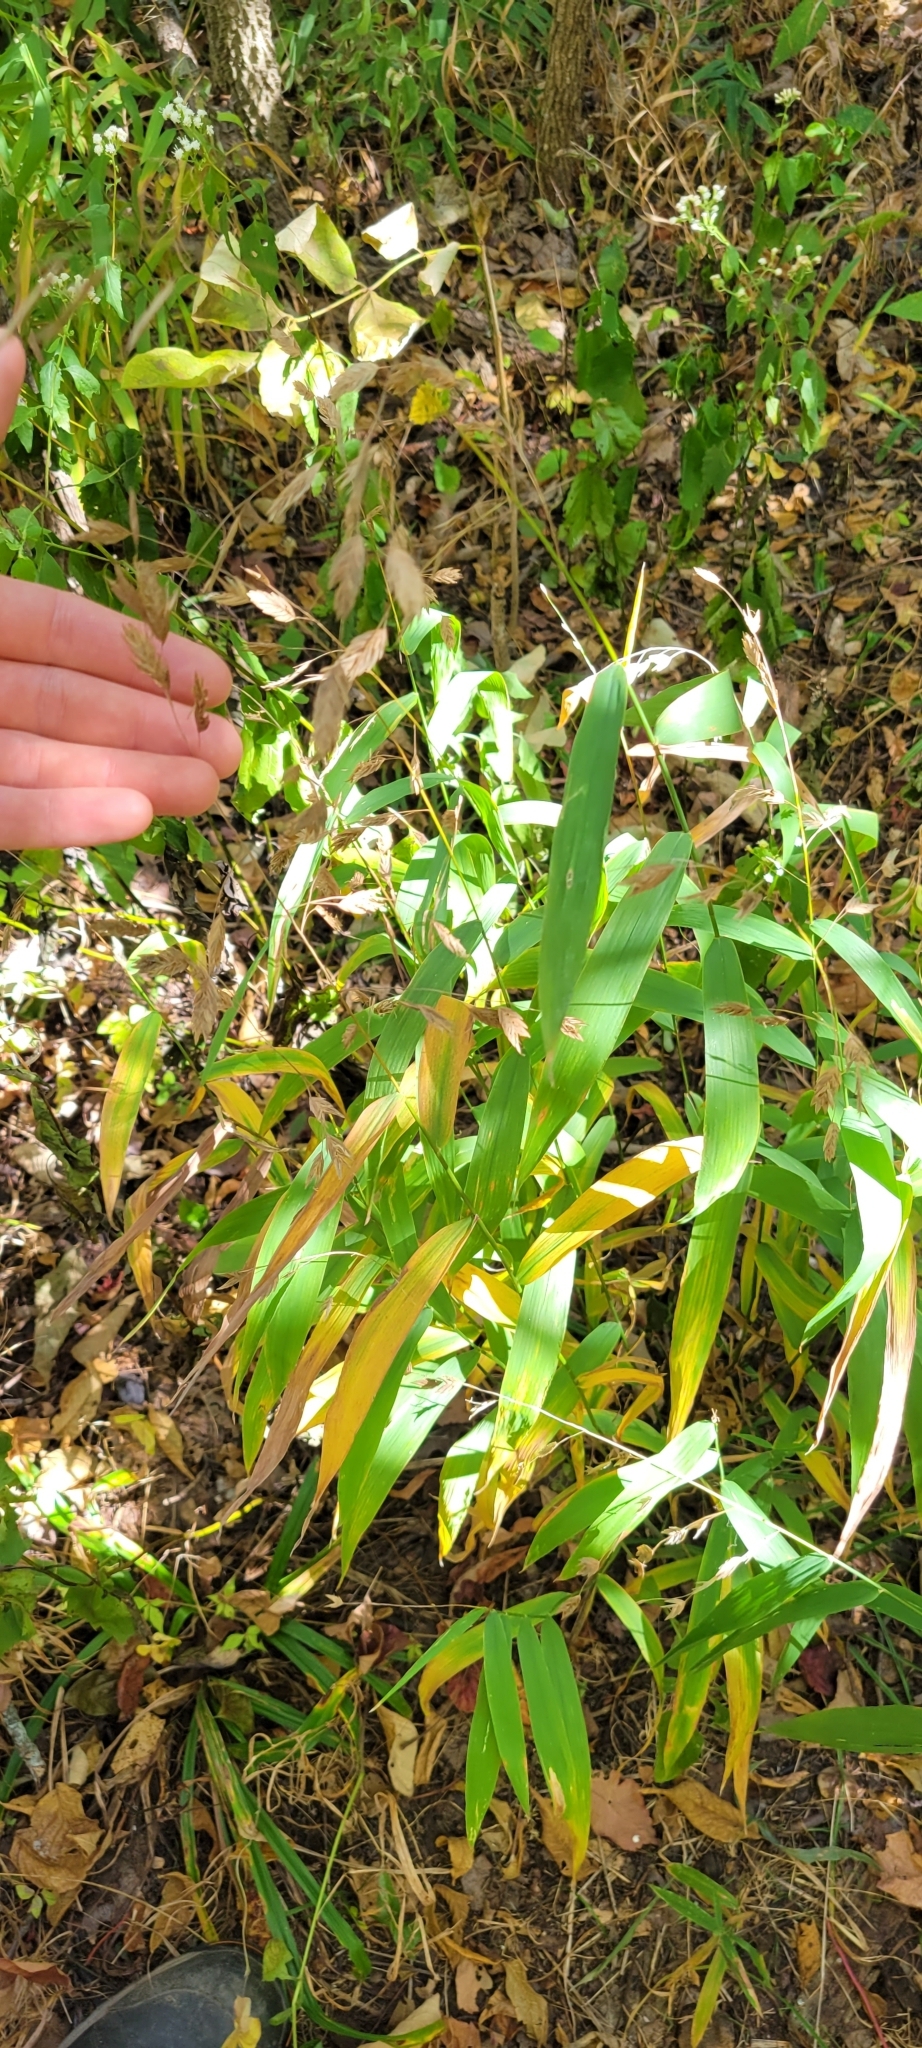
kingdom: Plantae
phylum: Tracheophyta
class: Liliopsida
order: Poales
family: Poaceae
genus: Chasmanthium
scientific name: Chasmanthium latifolium
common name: Broad-leaved chasmanthium
